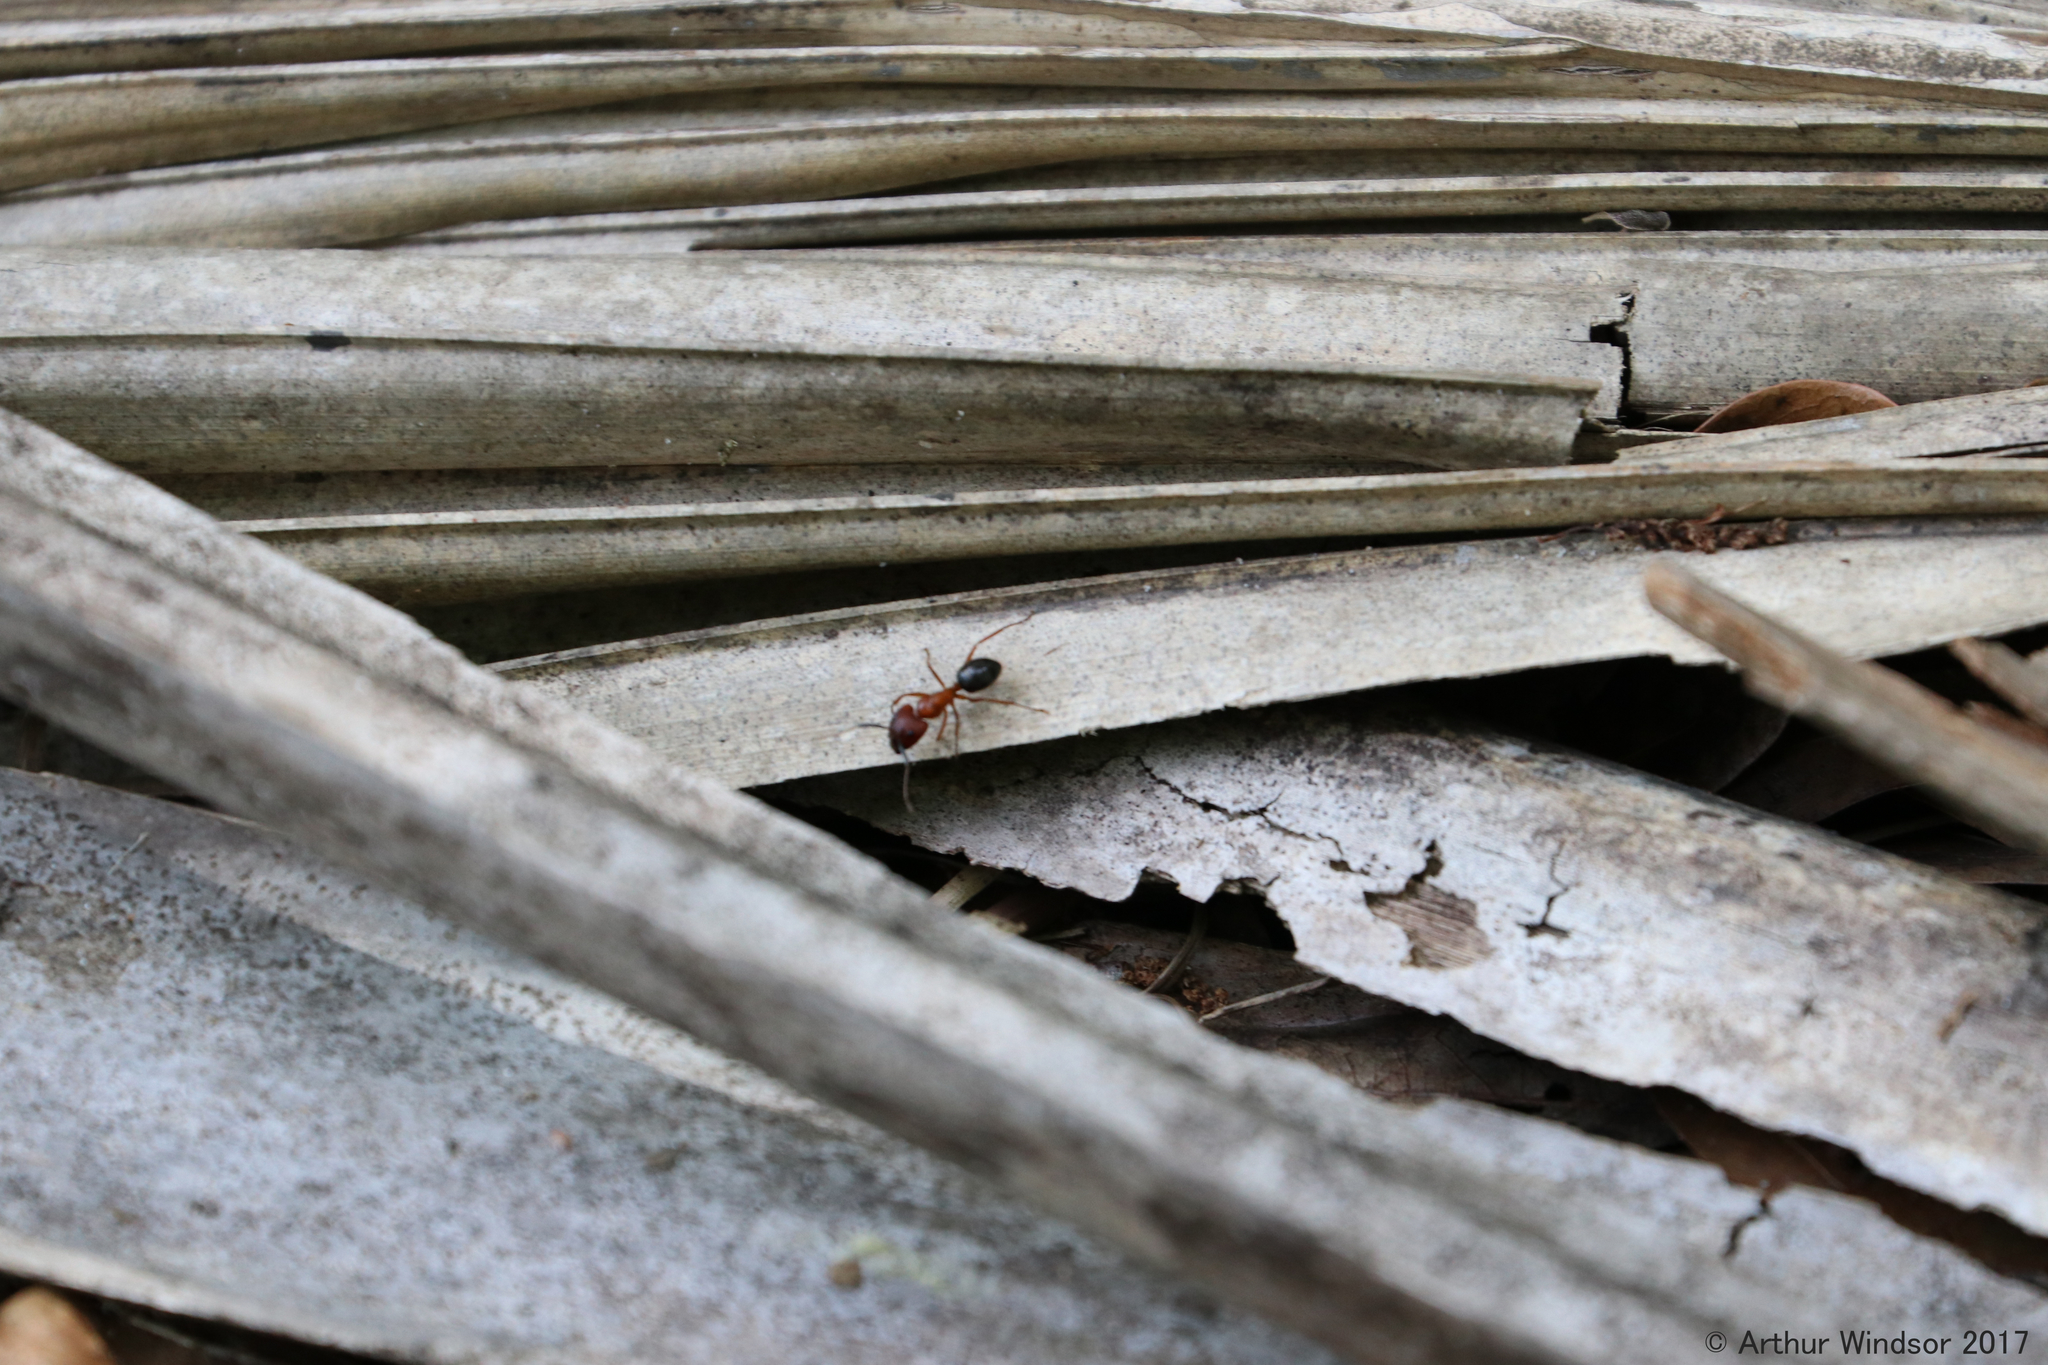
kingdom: Animalia
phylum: Arthropoda
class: Insecta
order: Hymenoptera
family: Formicidae
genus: Camponotus
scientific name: Camponotus floridanus
